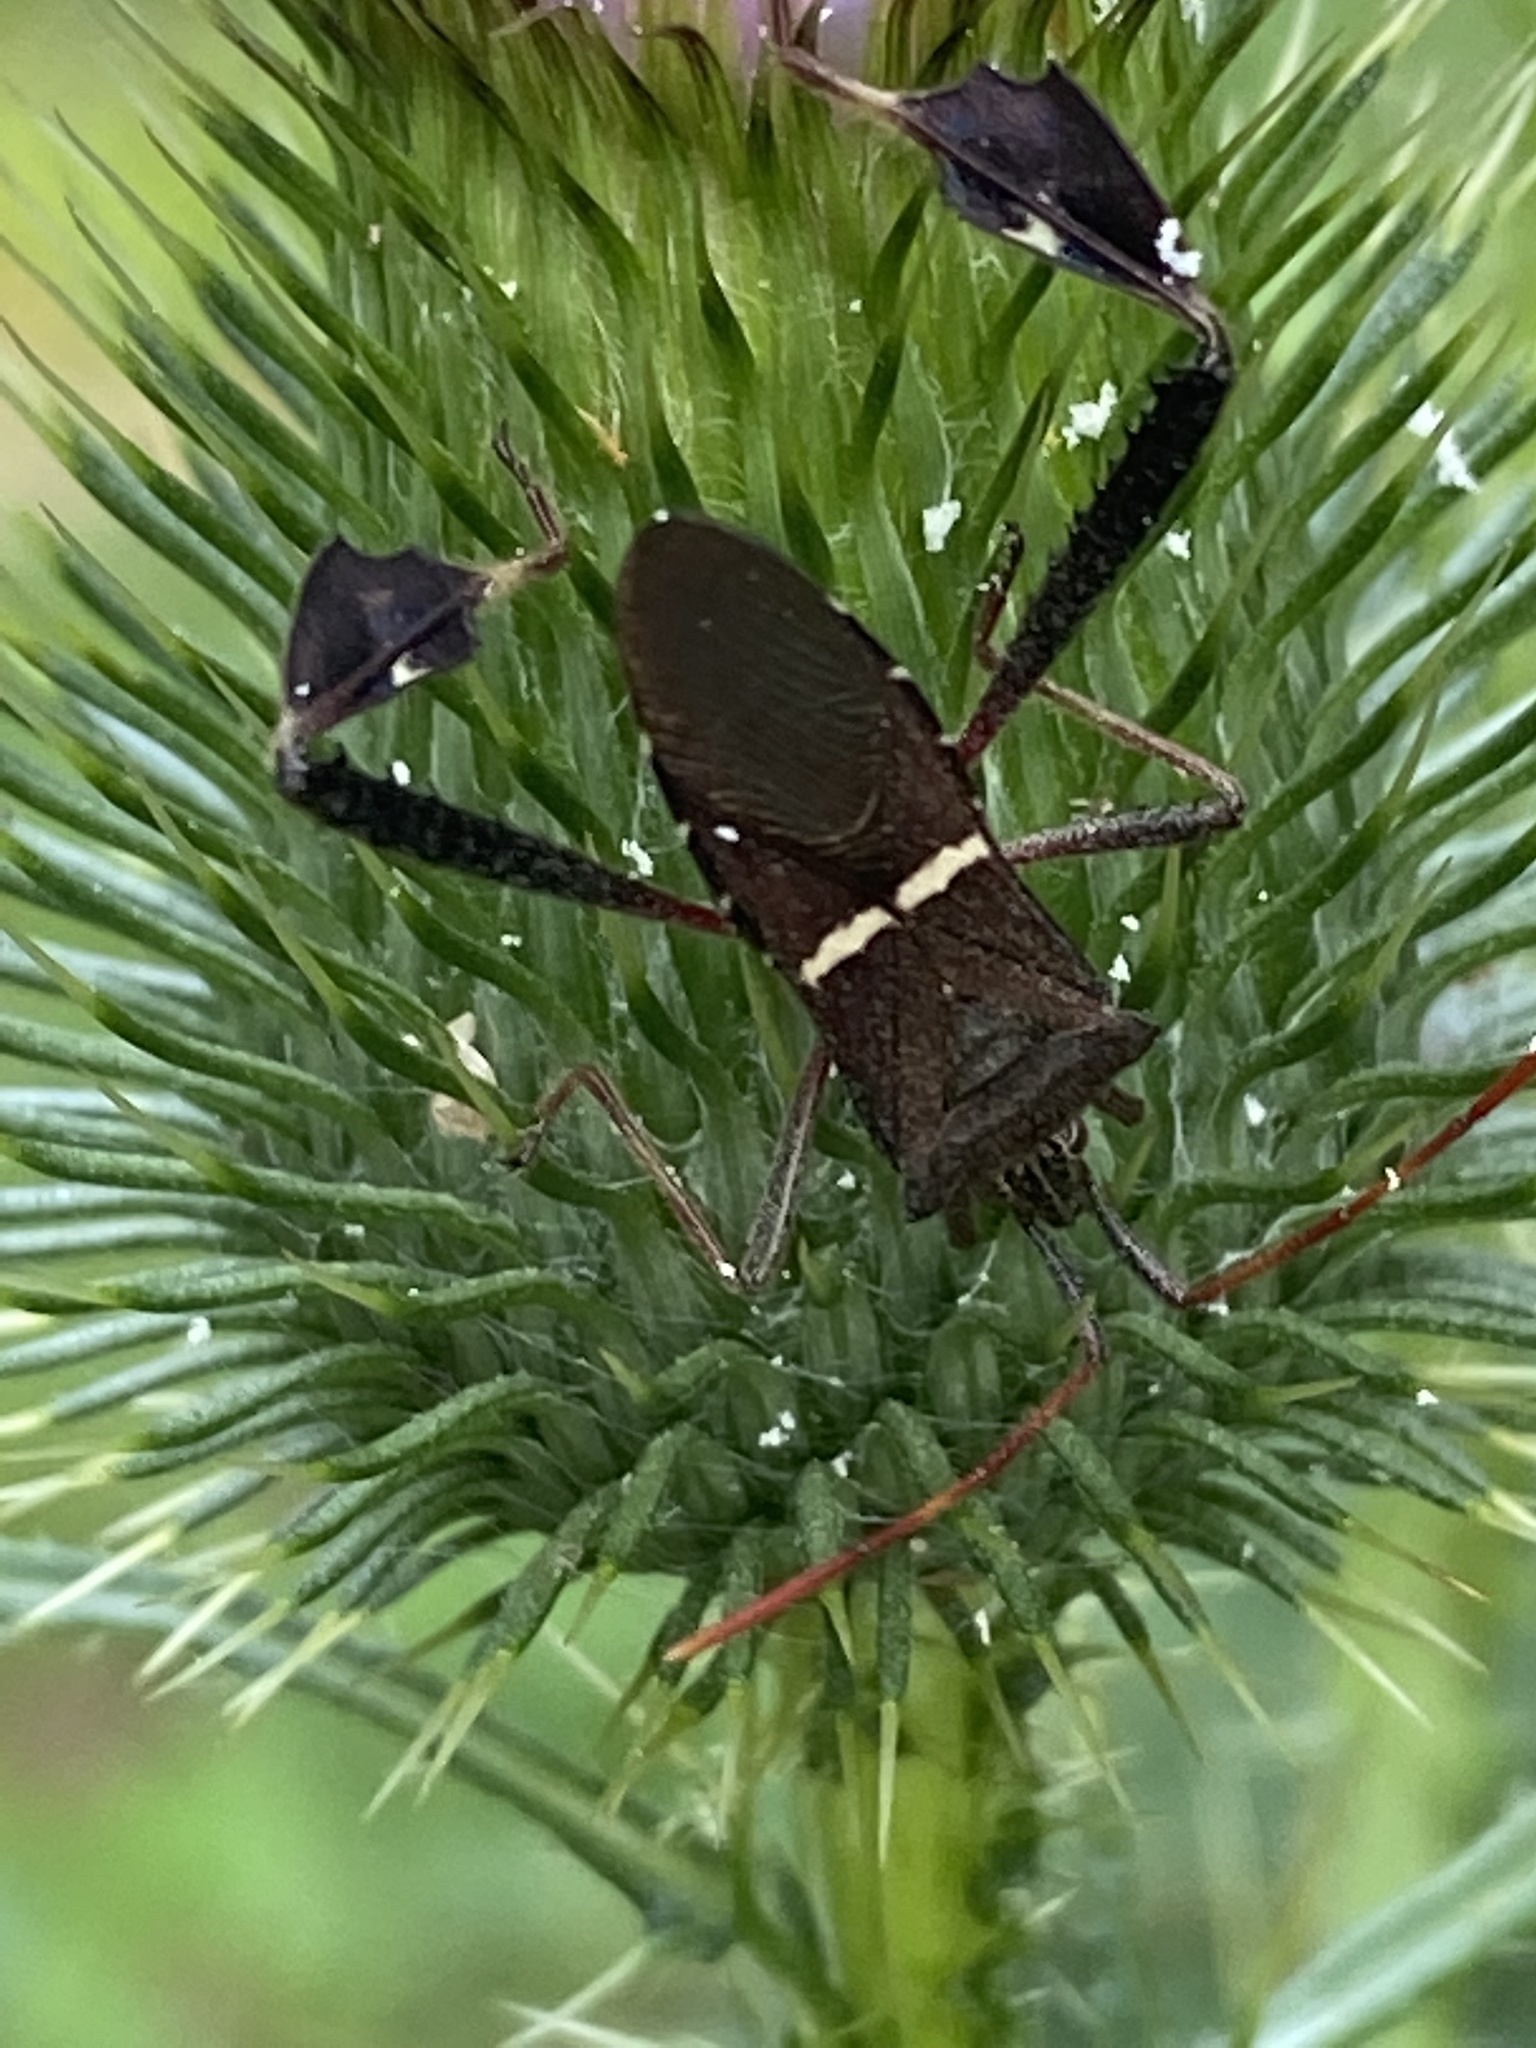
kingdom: Animalia
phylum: Arthropoda
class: Insecta
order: Hemiptera
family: Coreidae
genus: Leptoglossus
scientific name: Leptoglossus phyllopus
